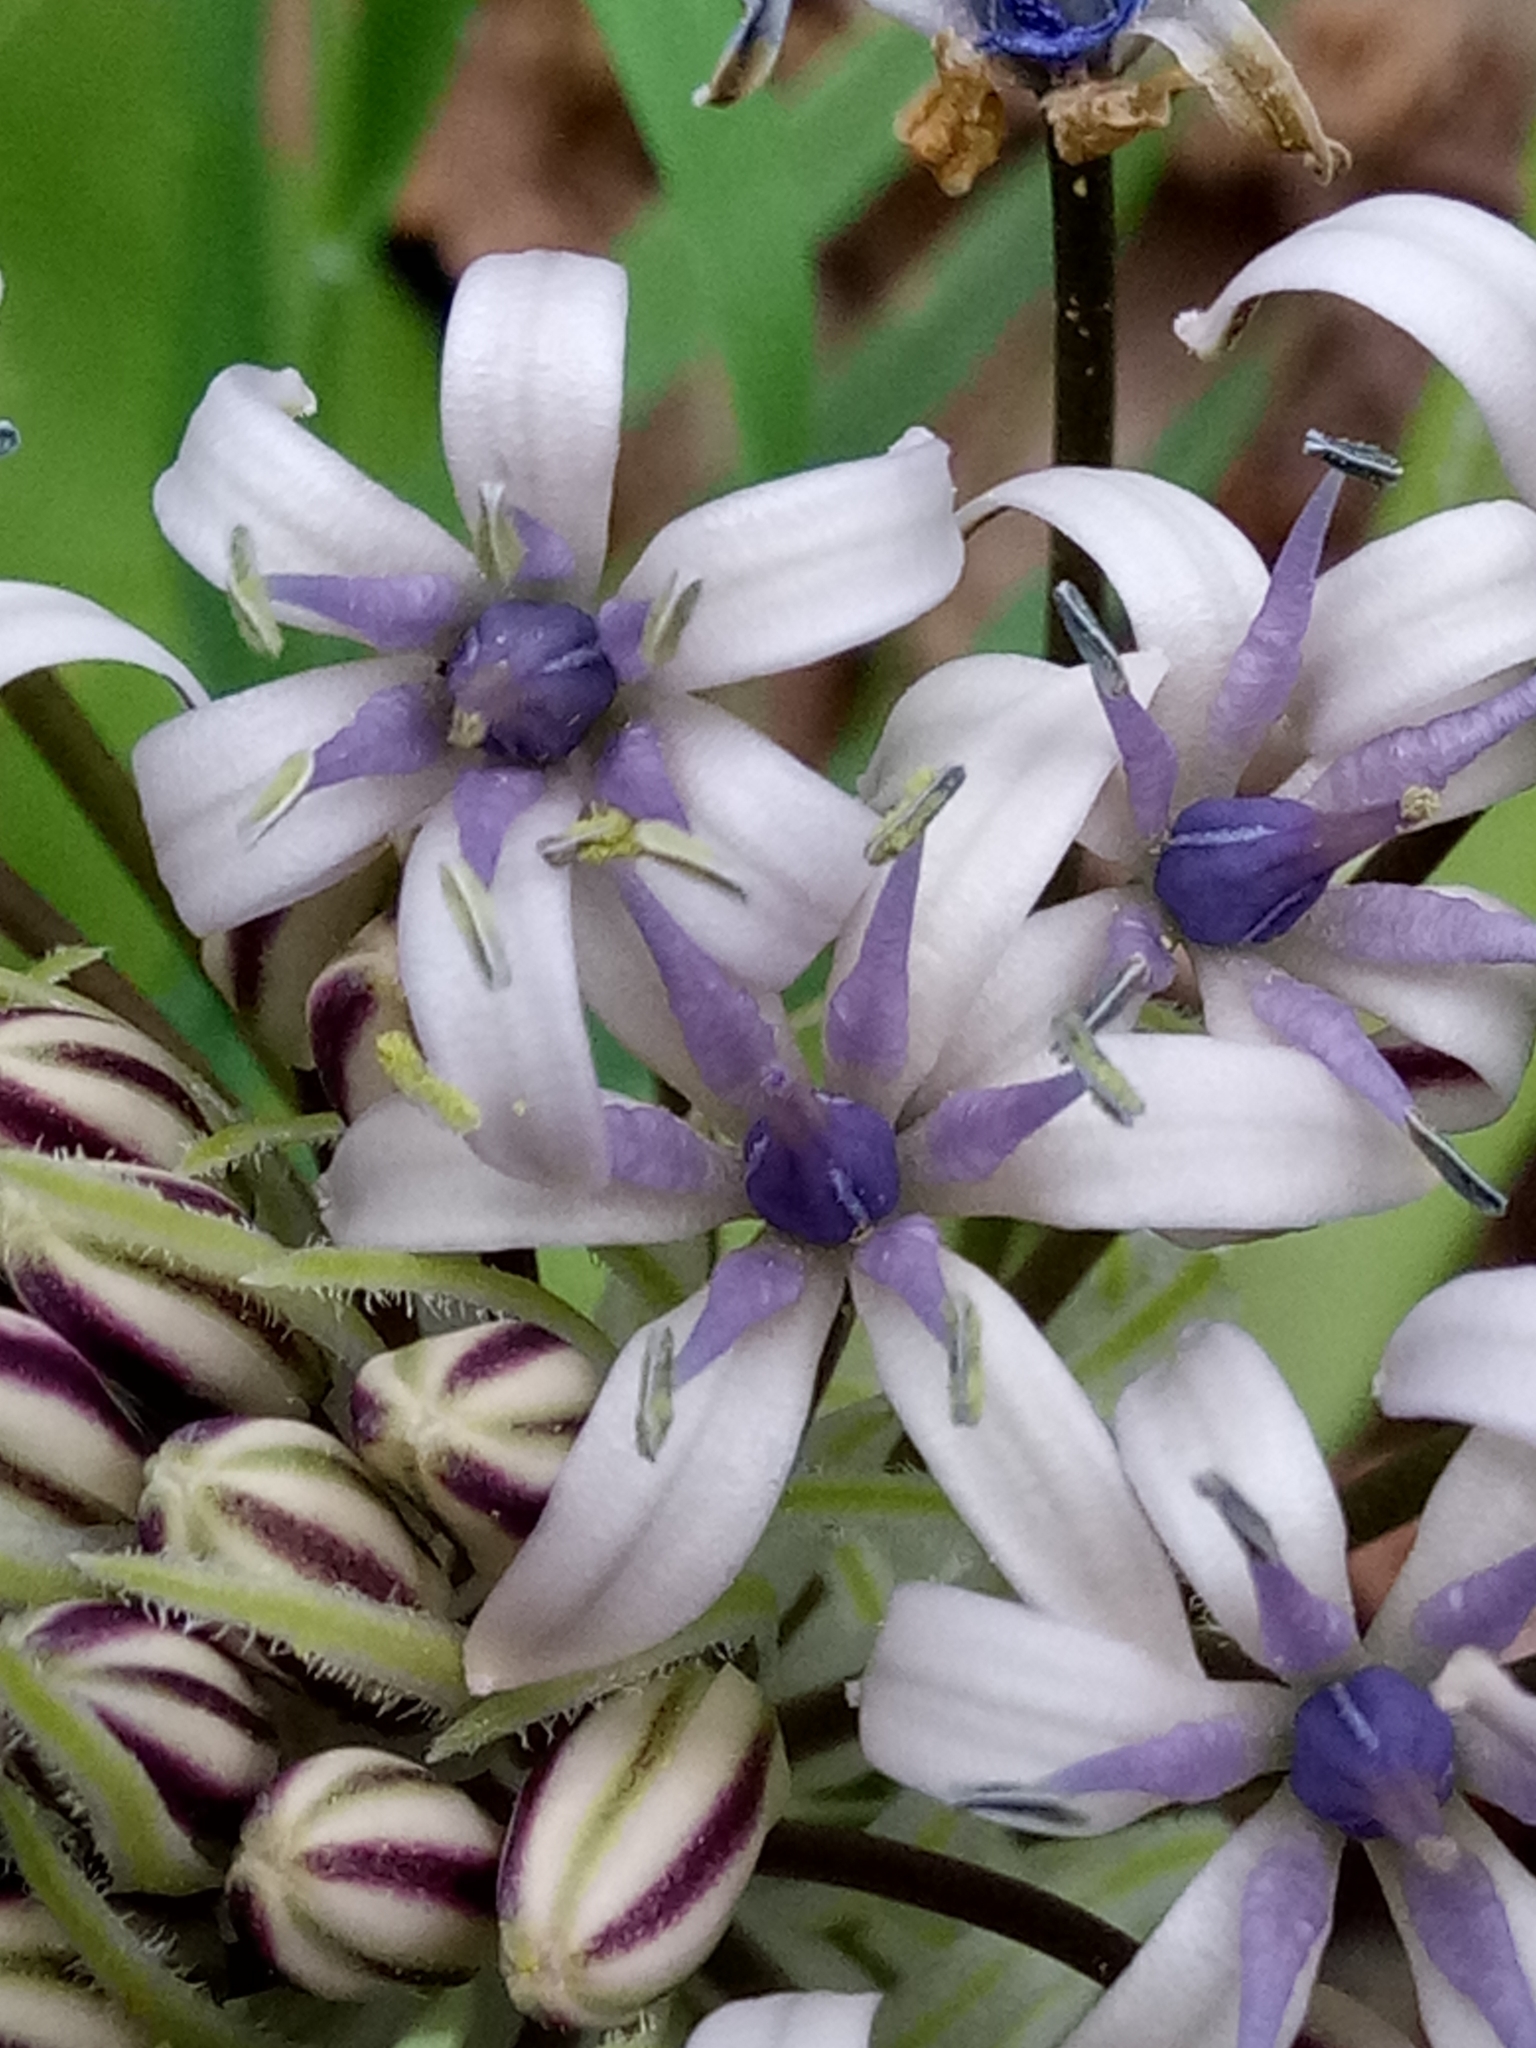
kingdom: Plantae
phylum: Tracheophyta
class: Liliopsida
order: Asparagales
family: Asparagaceae
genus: Scilla
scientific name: Scilla peruviana
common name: Portuguese squill
